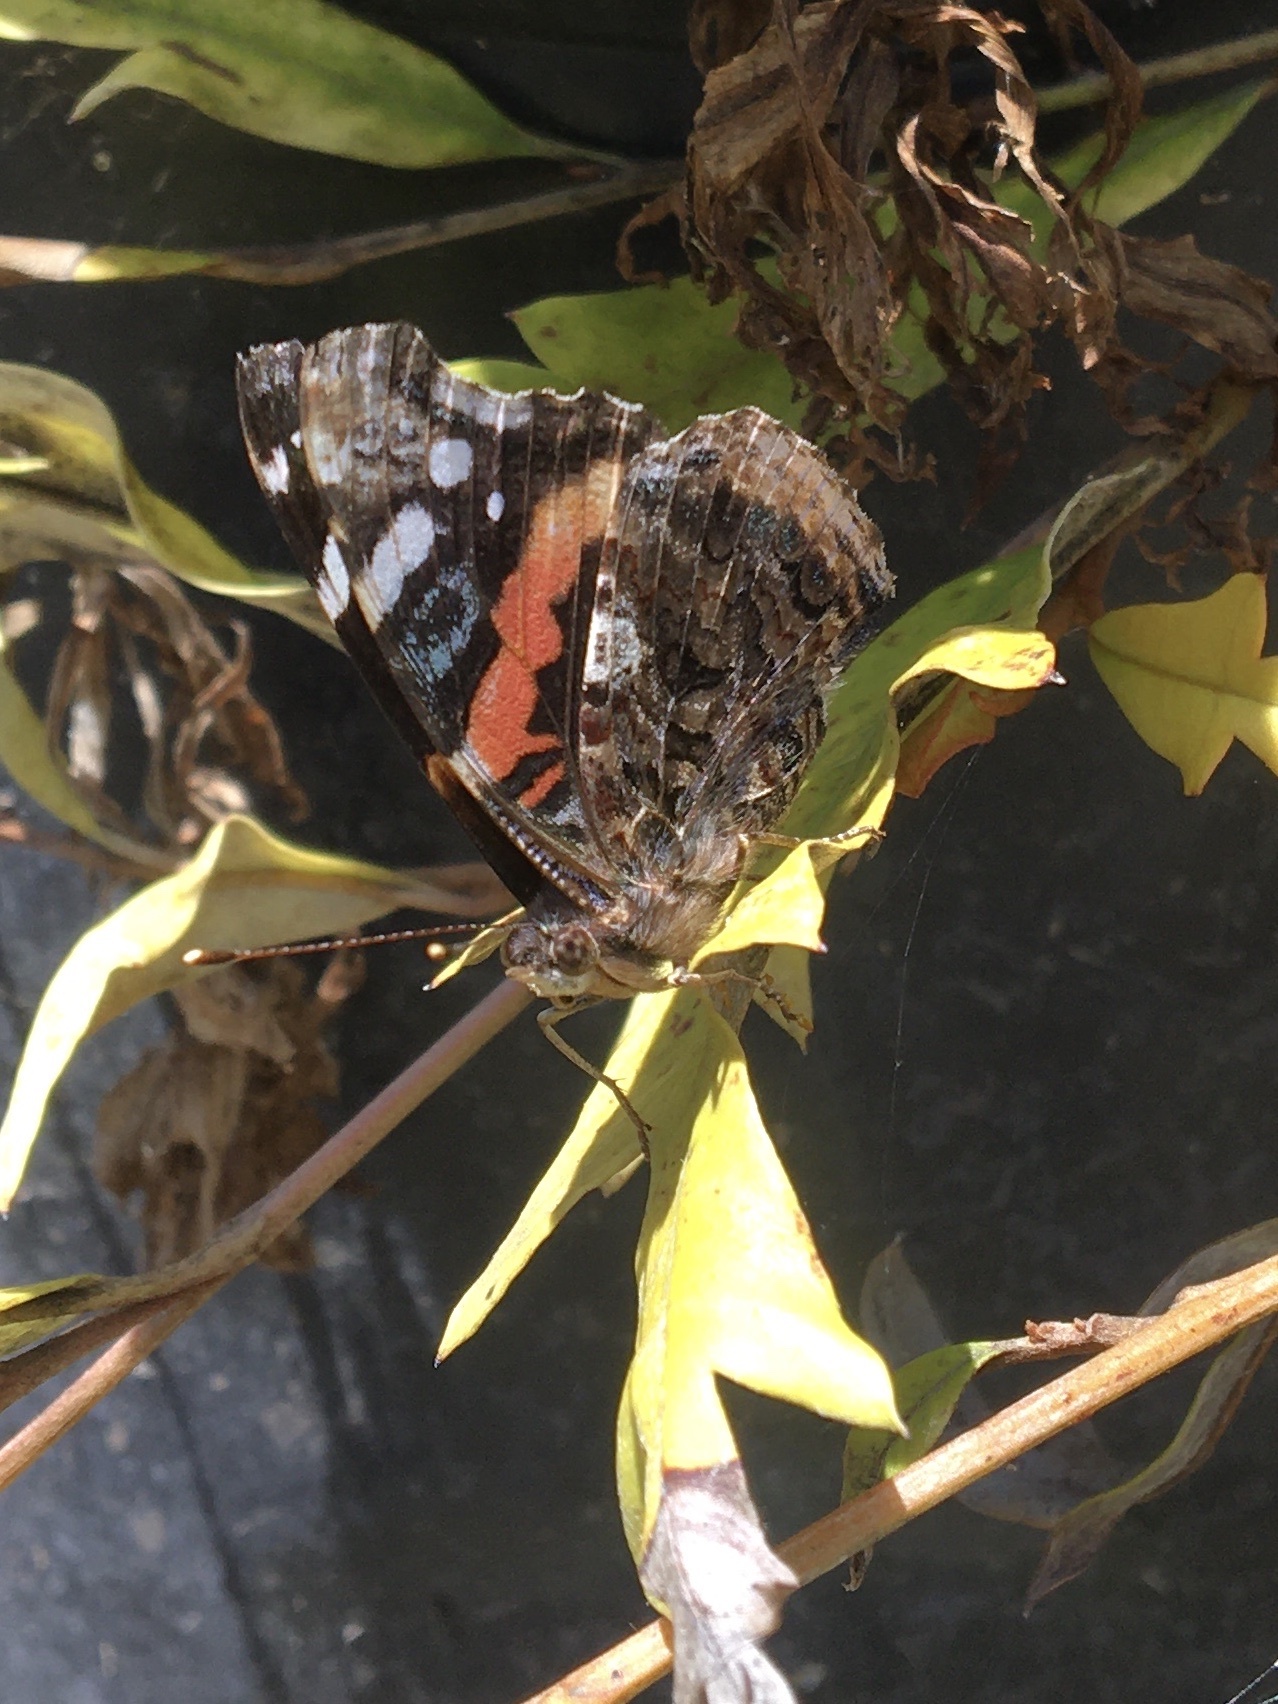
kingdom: Animalia
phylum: Arthropoda
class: Insecta
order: Lepidoptera
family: Nymphalidae
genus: Vanessa
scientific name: Vanessa atalanta
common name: Red admiral
